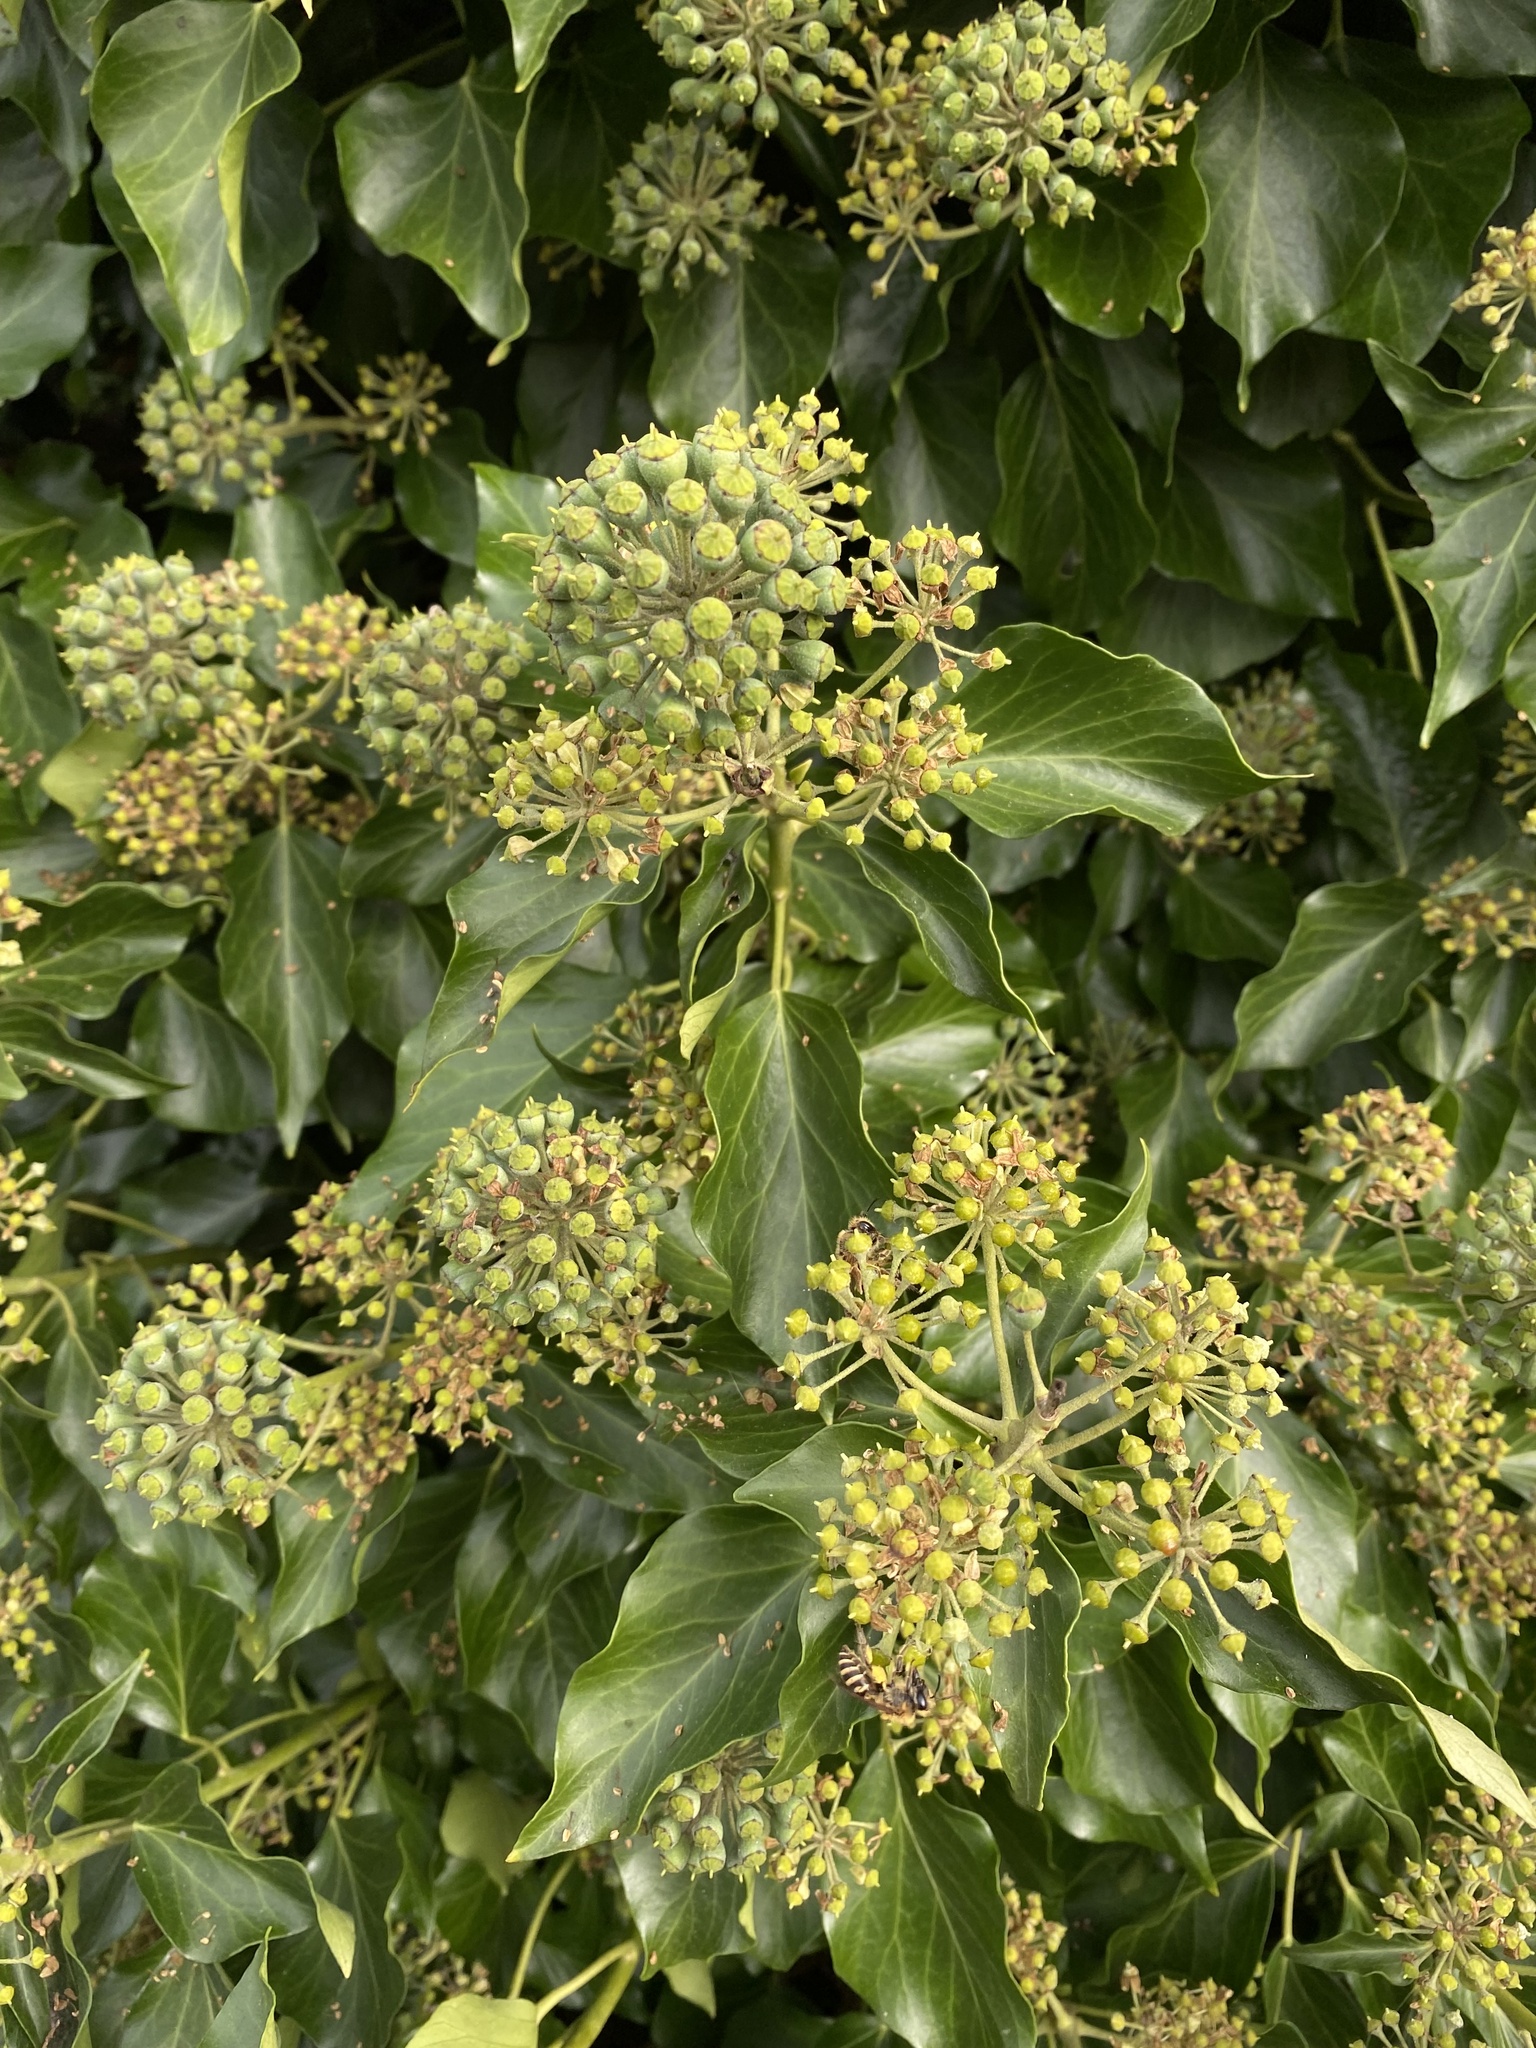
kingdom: Plantae
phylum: Tracheophyta
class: Magnoliopsida
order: Apiales
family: Araliaceae
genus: Hedera
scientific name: Hedera helix
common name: Ivy
